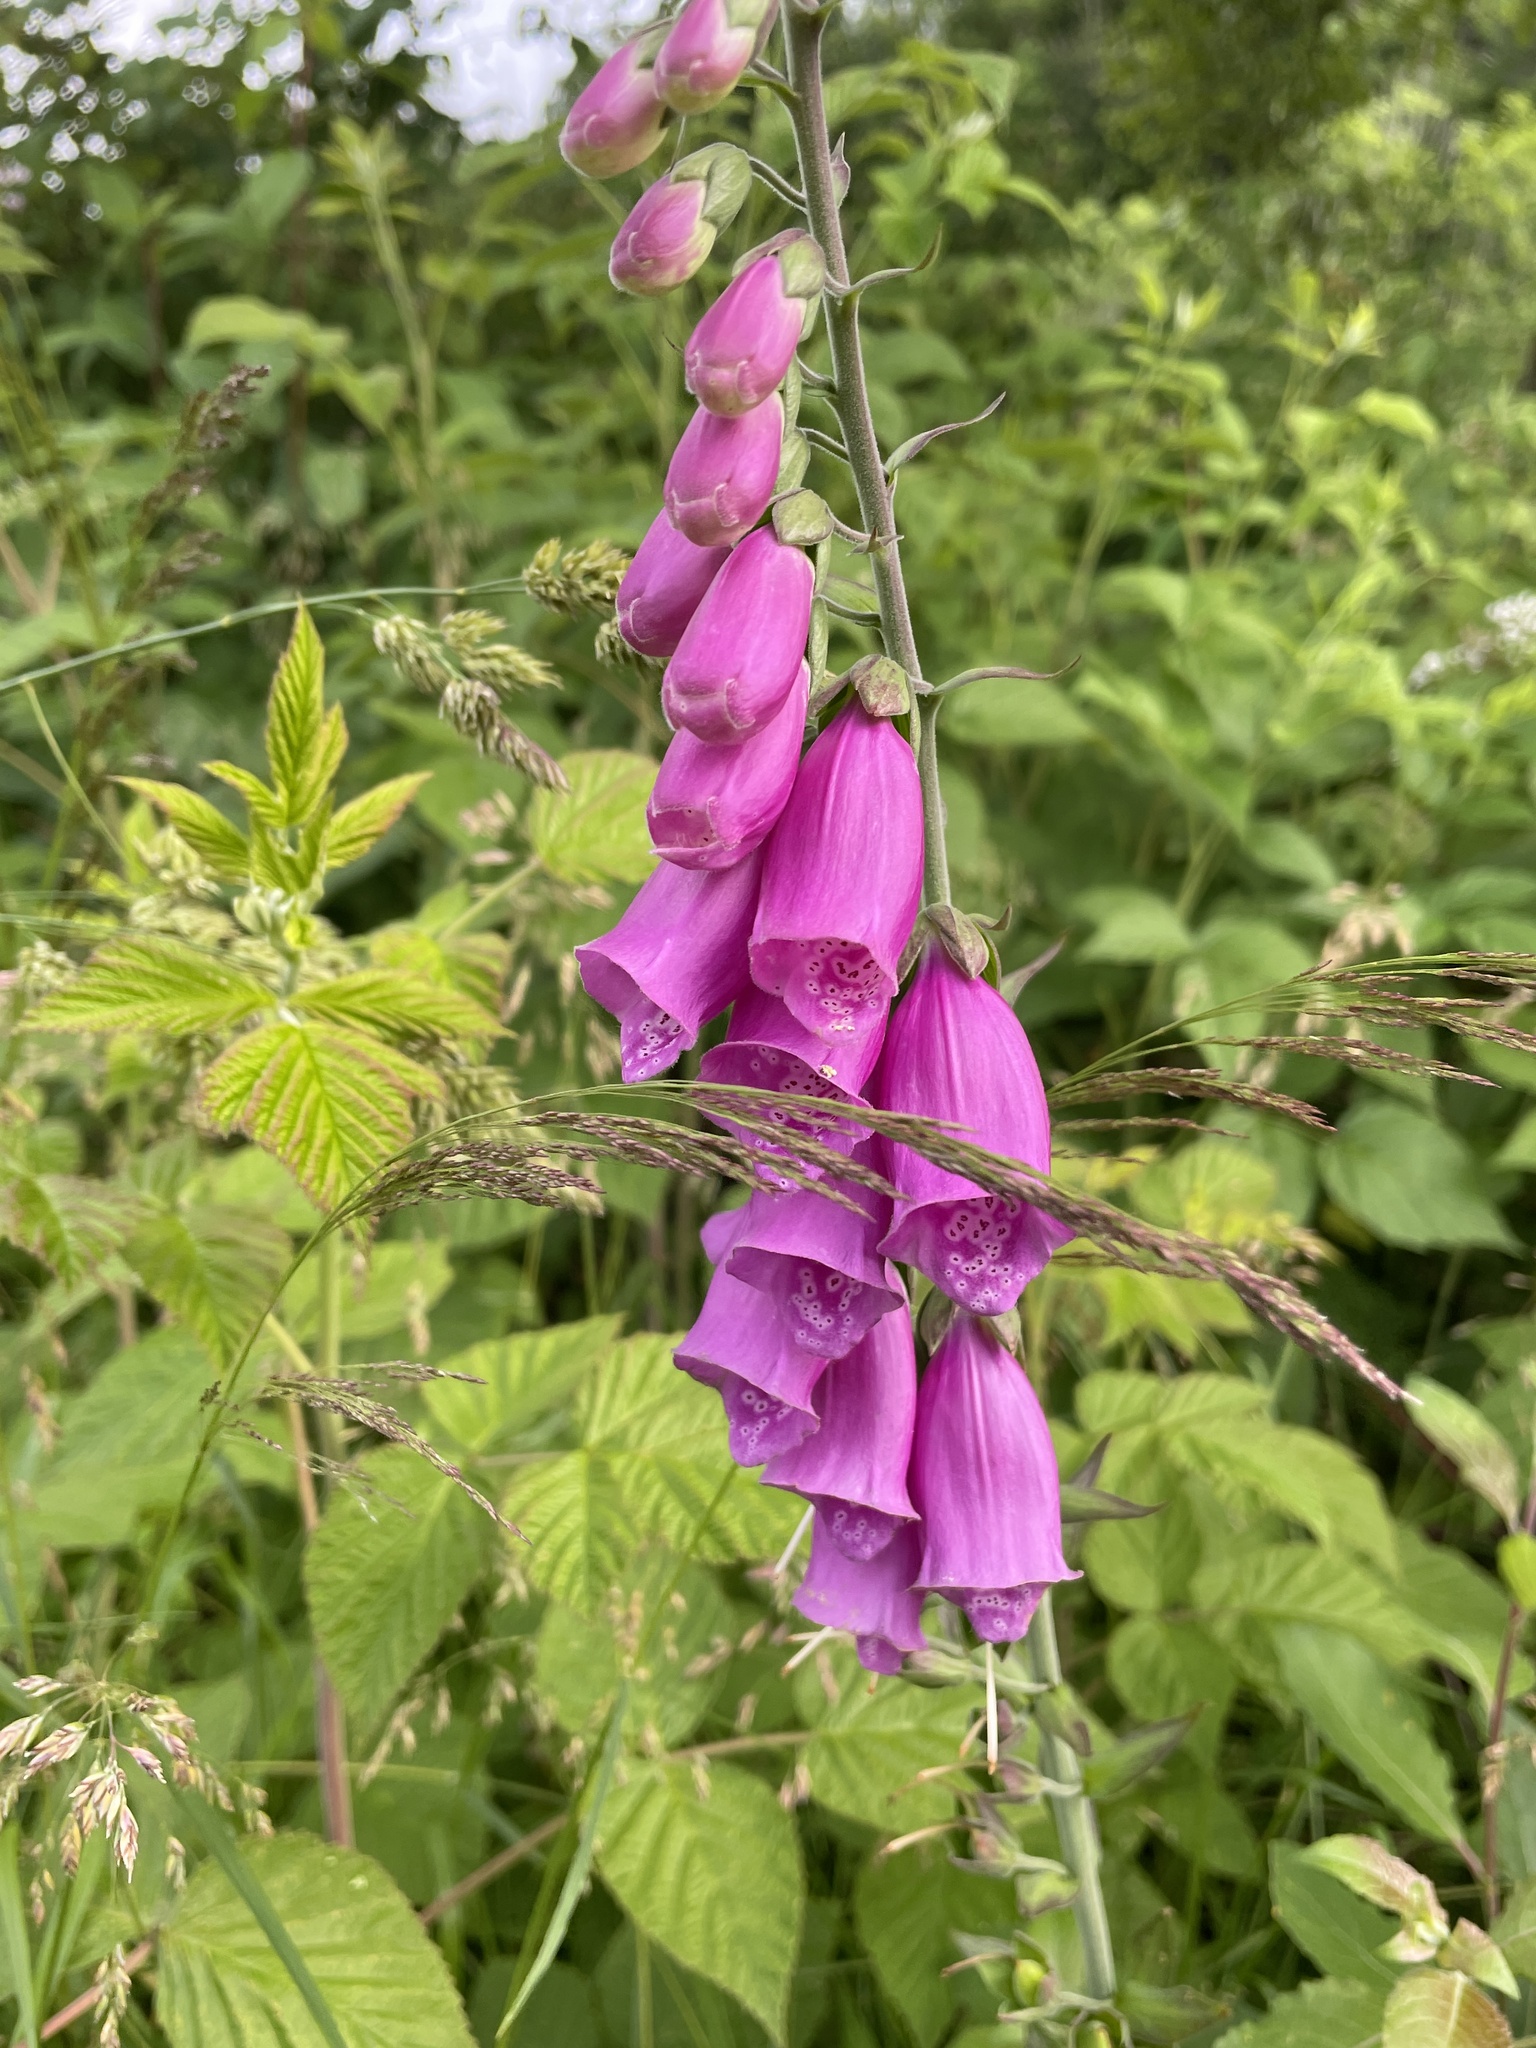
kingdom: Plantae
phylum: Tracheophyta
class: Magnoliopsida
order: Lamiales
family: Plantaginaceae
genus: Digitalis
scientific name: Digitalis purpurea
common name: Foxglove
